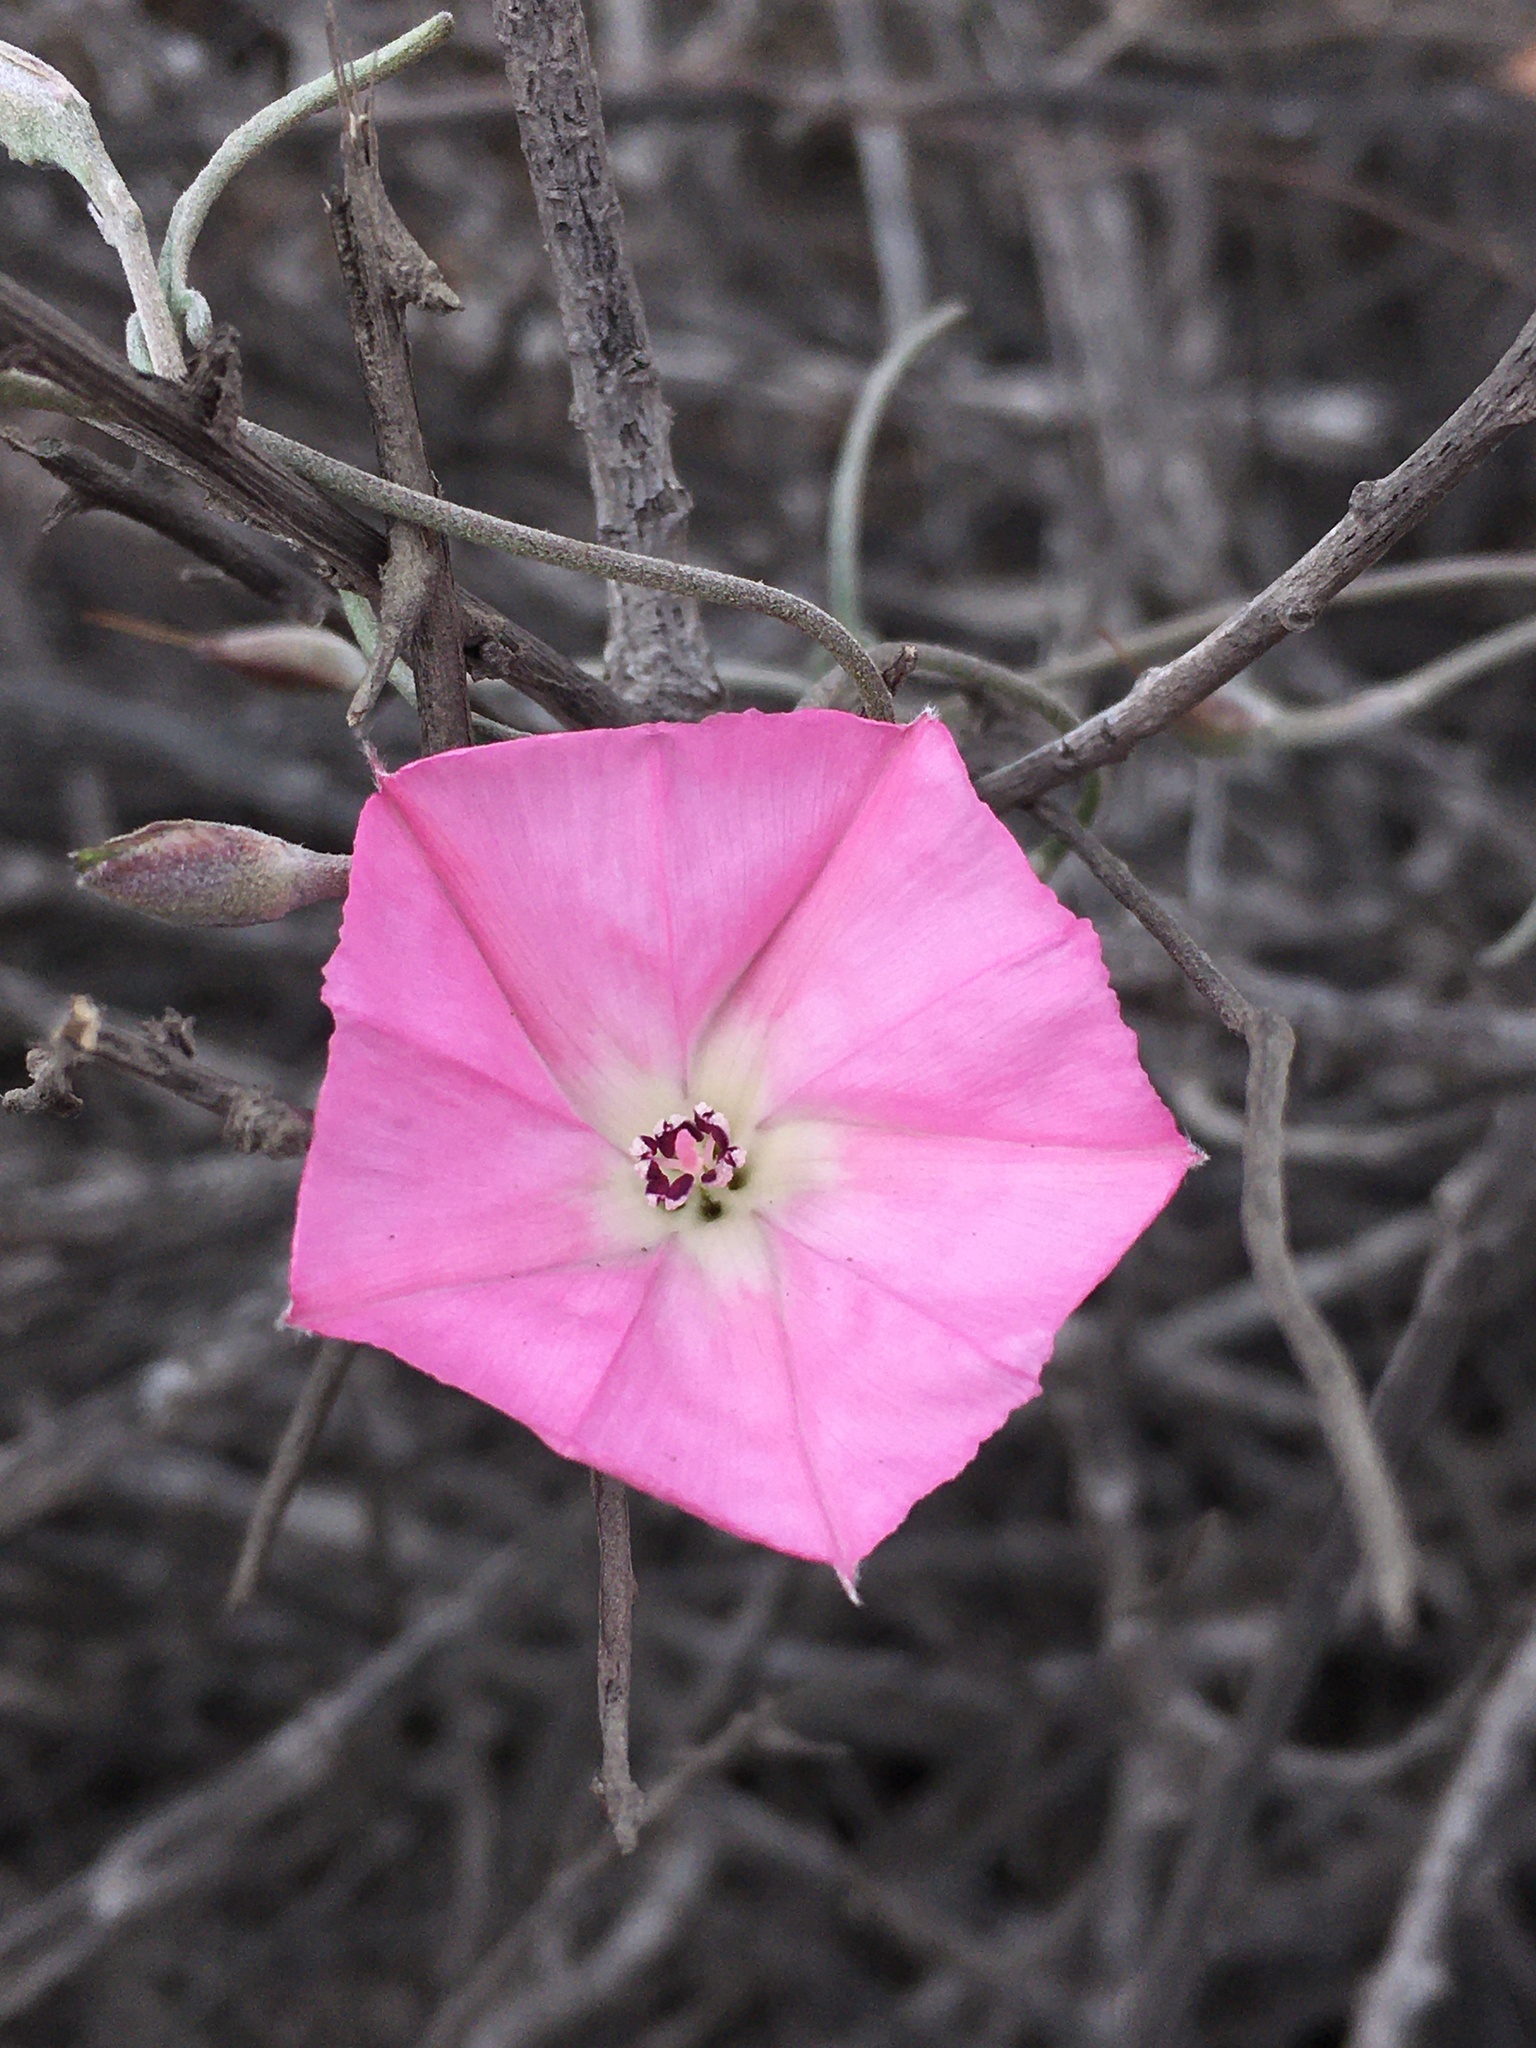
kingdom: Plantae
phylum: Tracheophyta
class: Magnoliopsida
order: Solanales
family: Convolvulaceae
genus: Convolvulus
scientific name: Convolvulus chilensis
